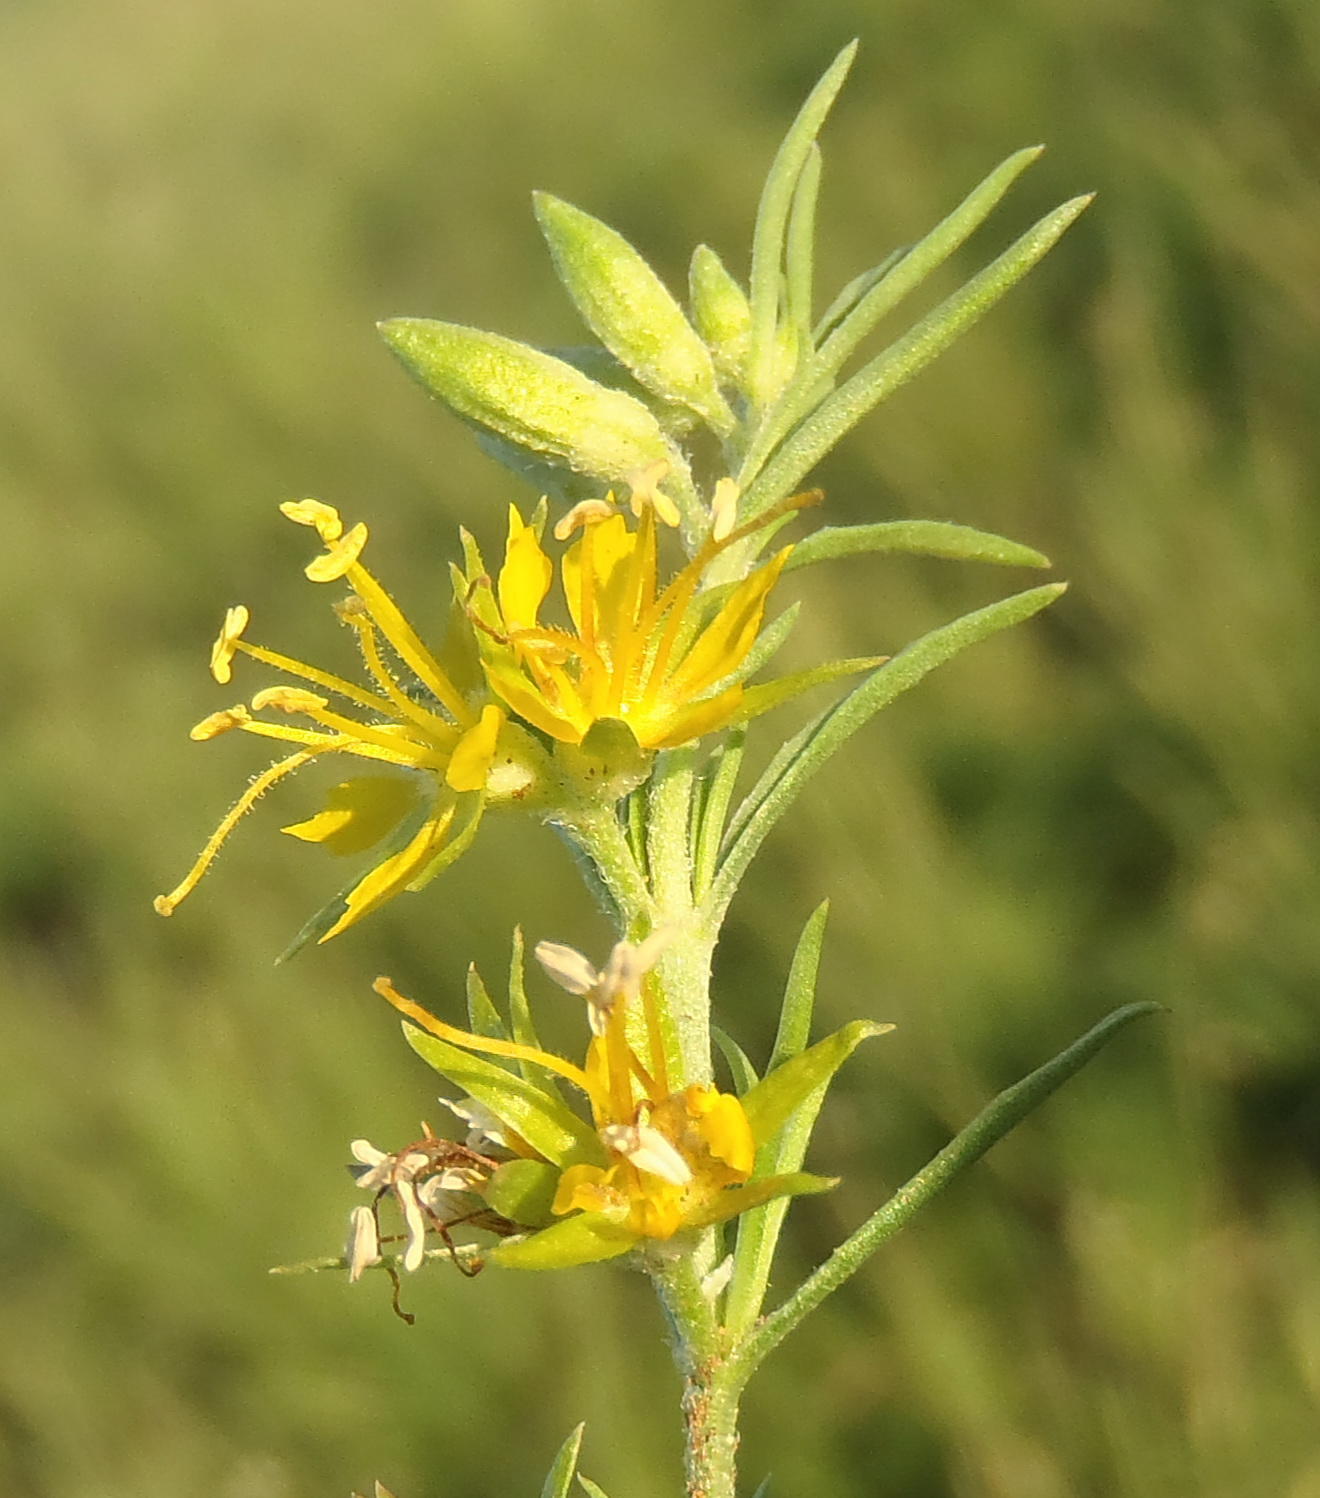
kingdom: Plantae
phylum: Tracheophyta
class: Magnoliopsida
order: Vahliales
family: Vahliaceae
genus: Vahlia
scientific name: Vahlia capensis
